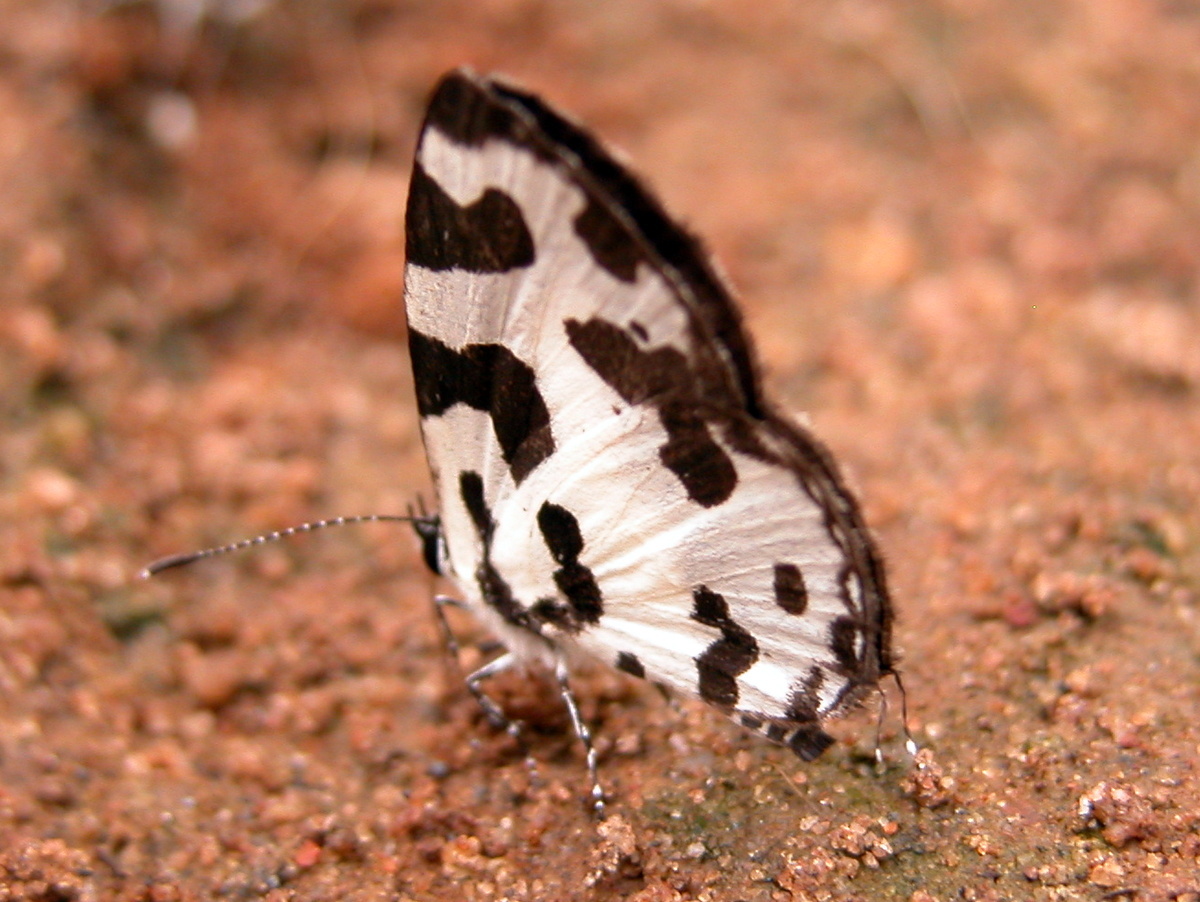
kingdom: Animalia
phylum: Arthropoda
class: Insecta
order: Lepidoptera
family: Lycaenidae
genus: Caleta
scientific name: Caleta decidia
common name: Angled pierrot
